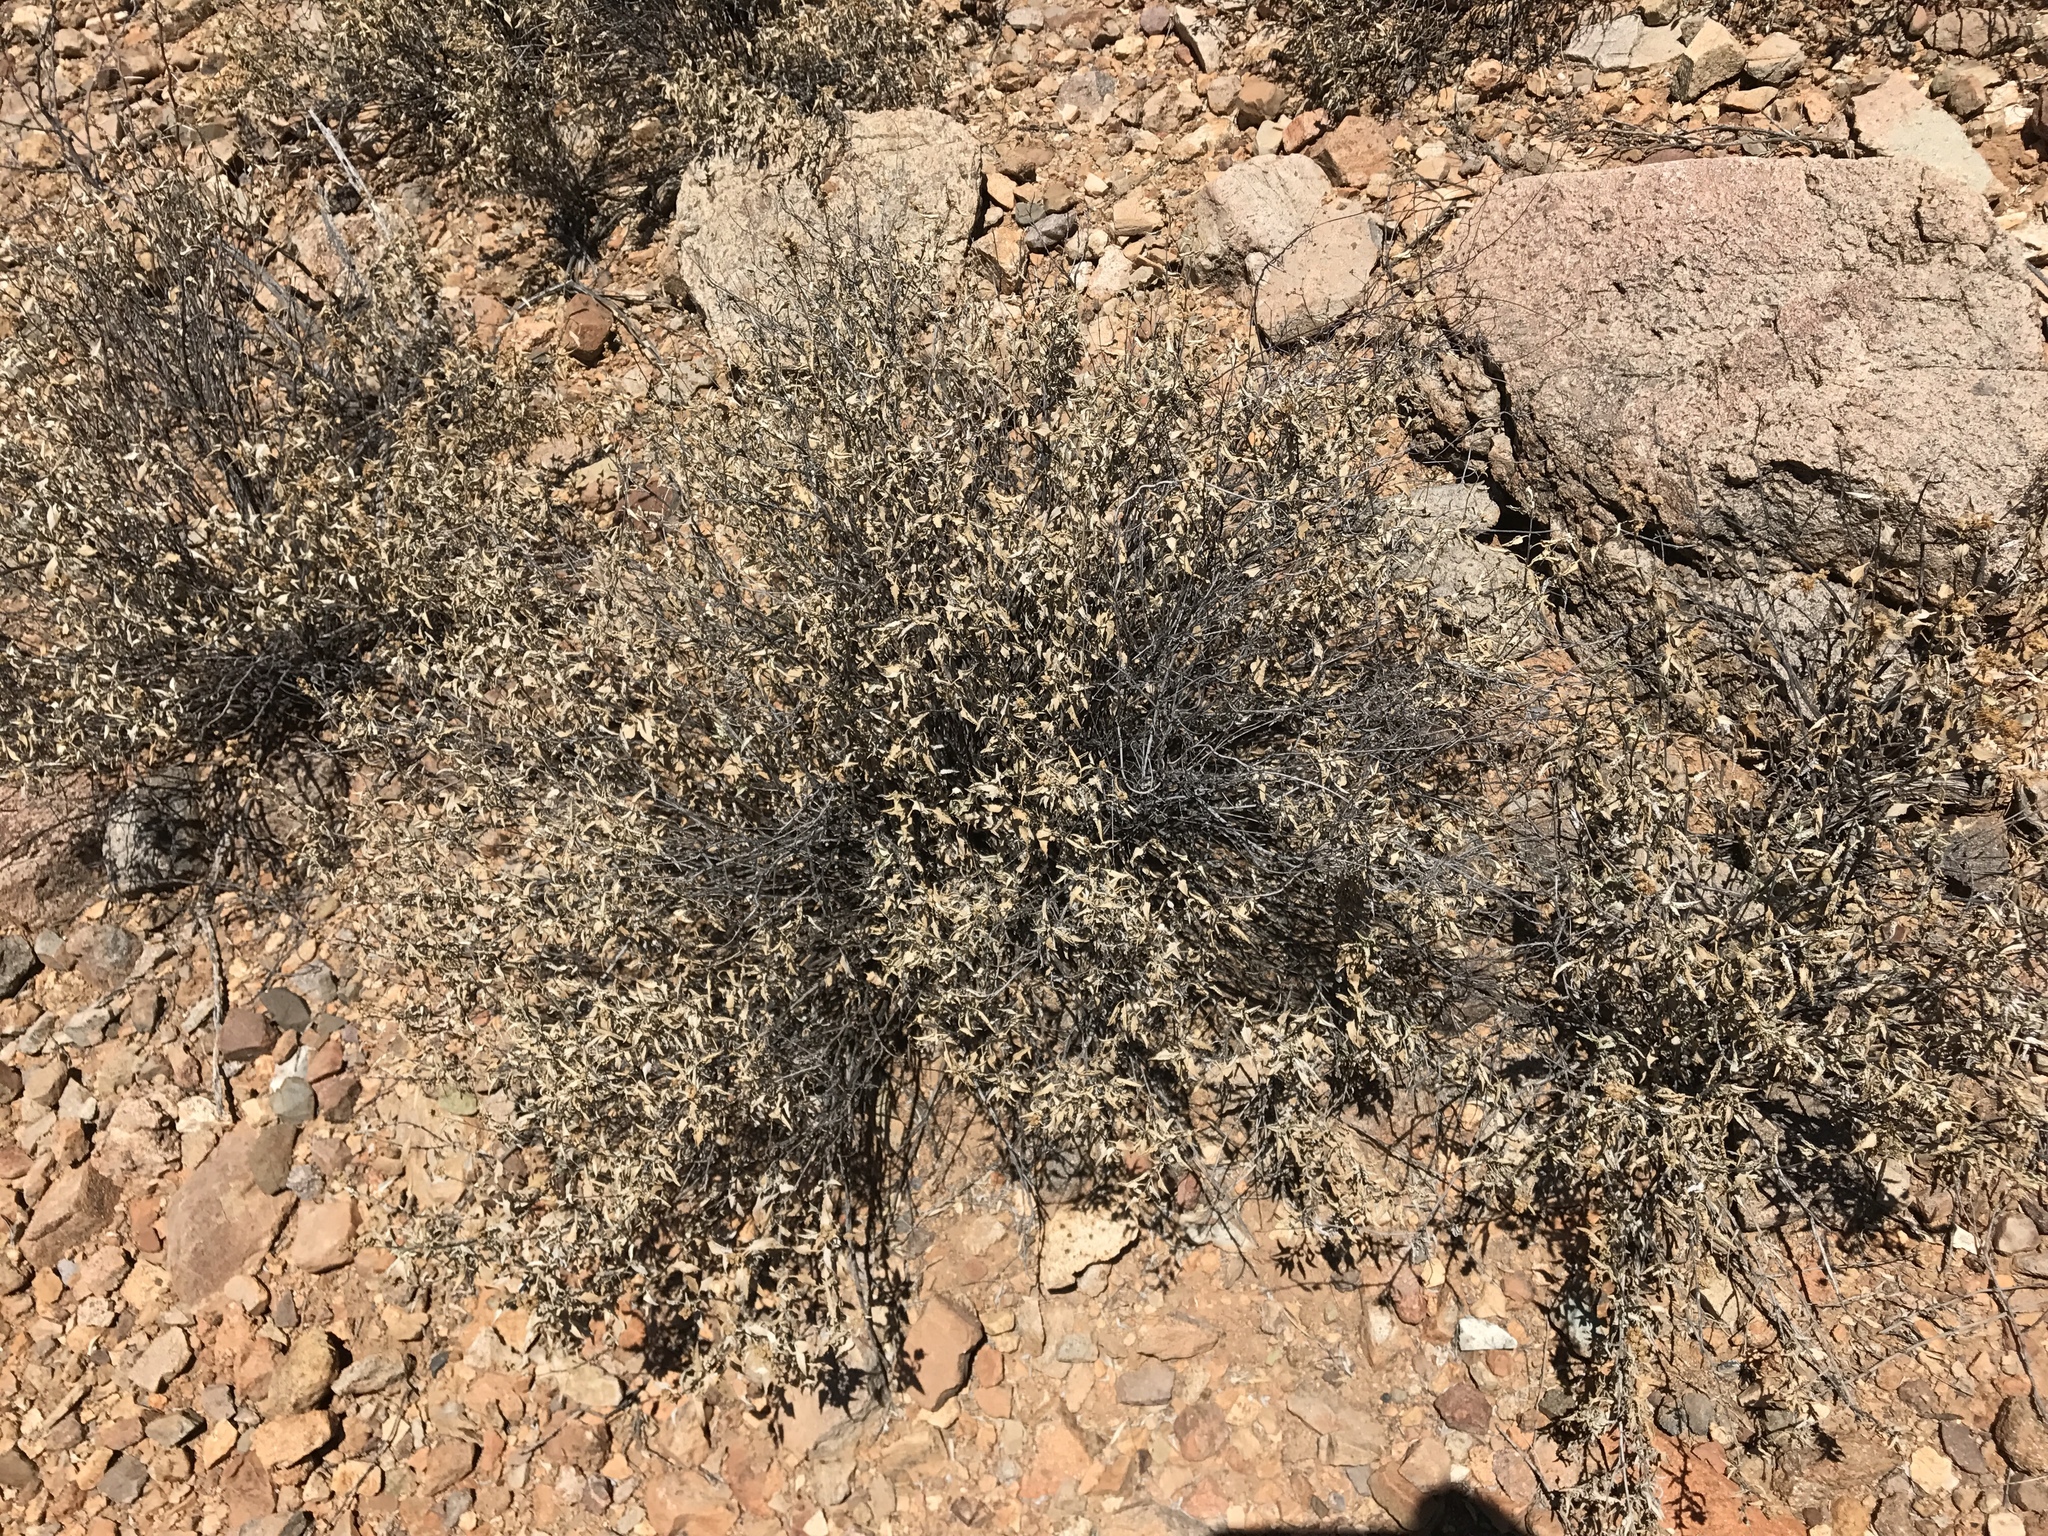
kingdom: Plantae
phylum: Tracheophyta
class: Magnoliopsida
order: Asterales
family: Asteraceae
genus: Ambrosia
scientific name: Ambrosia deltoidea
